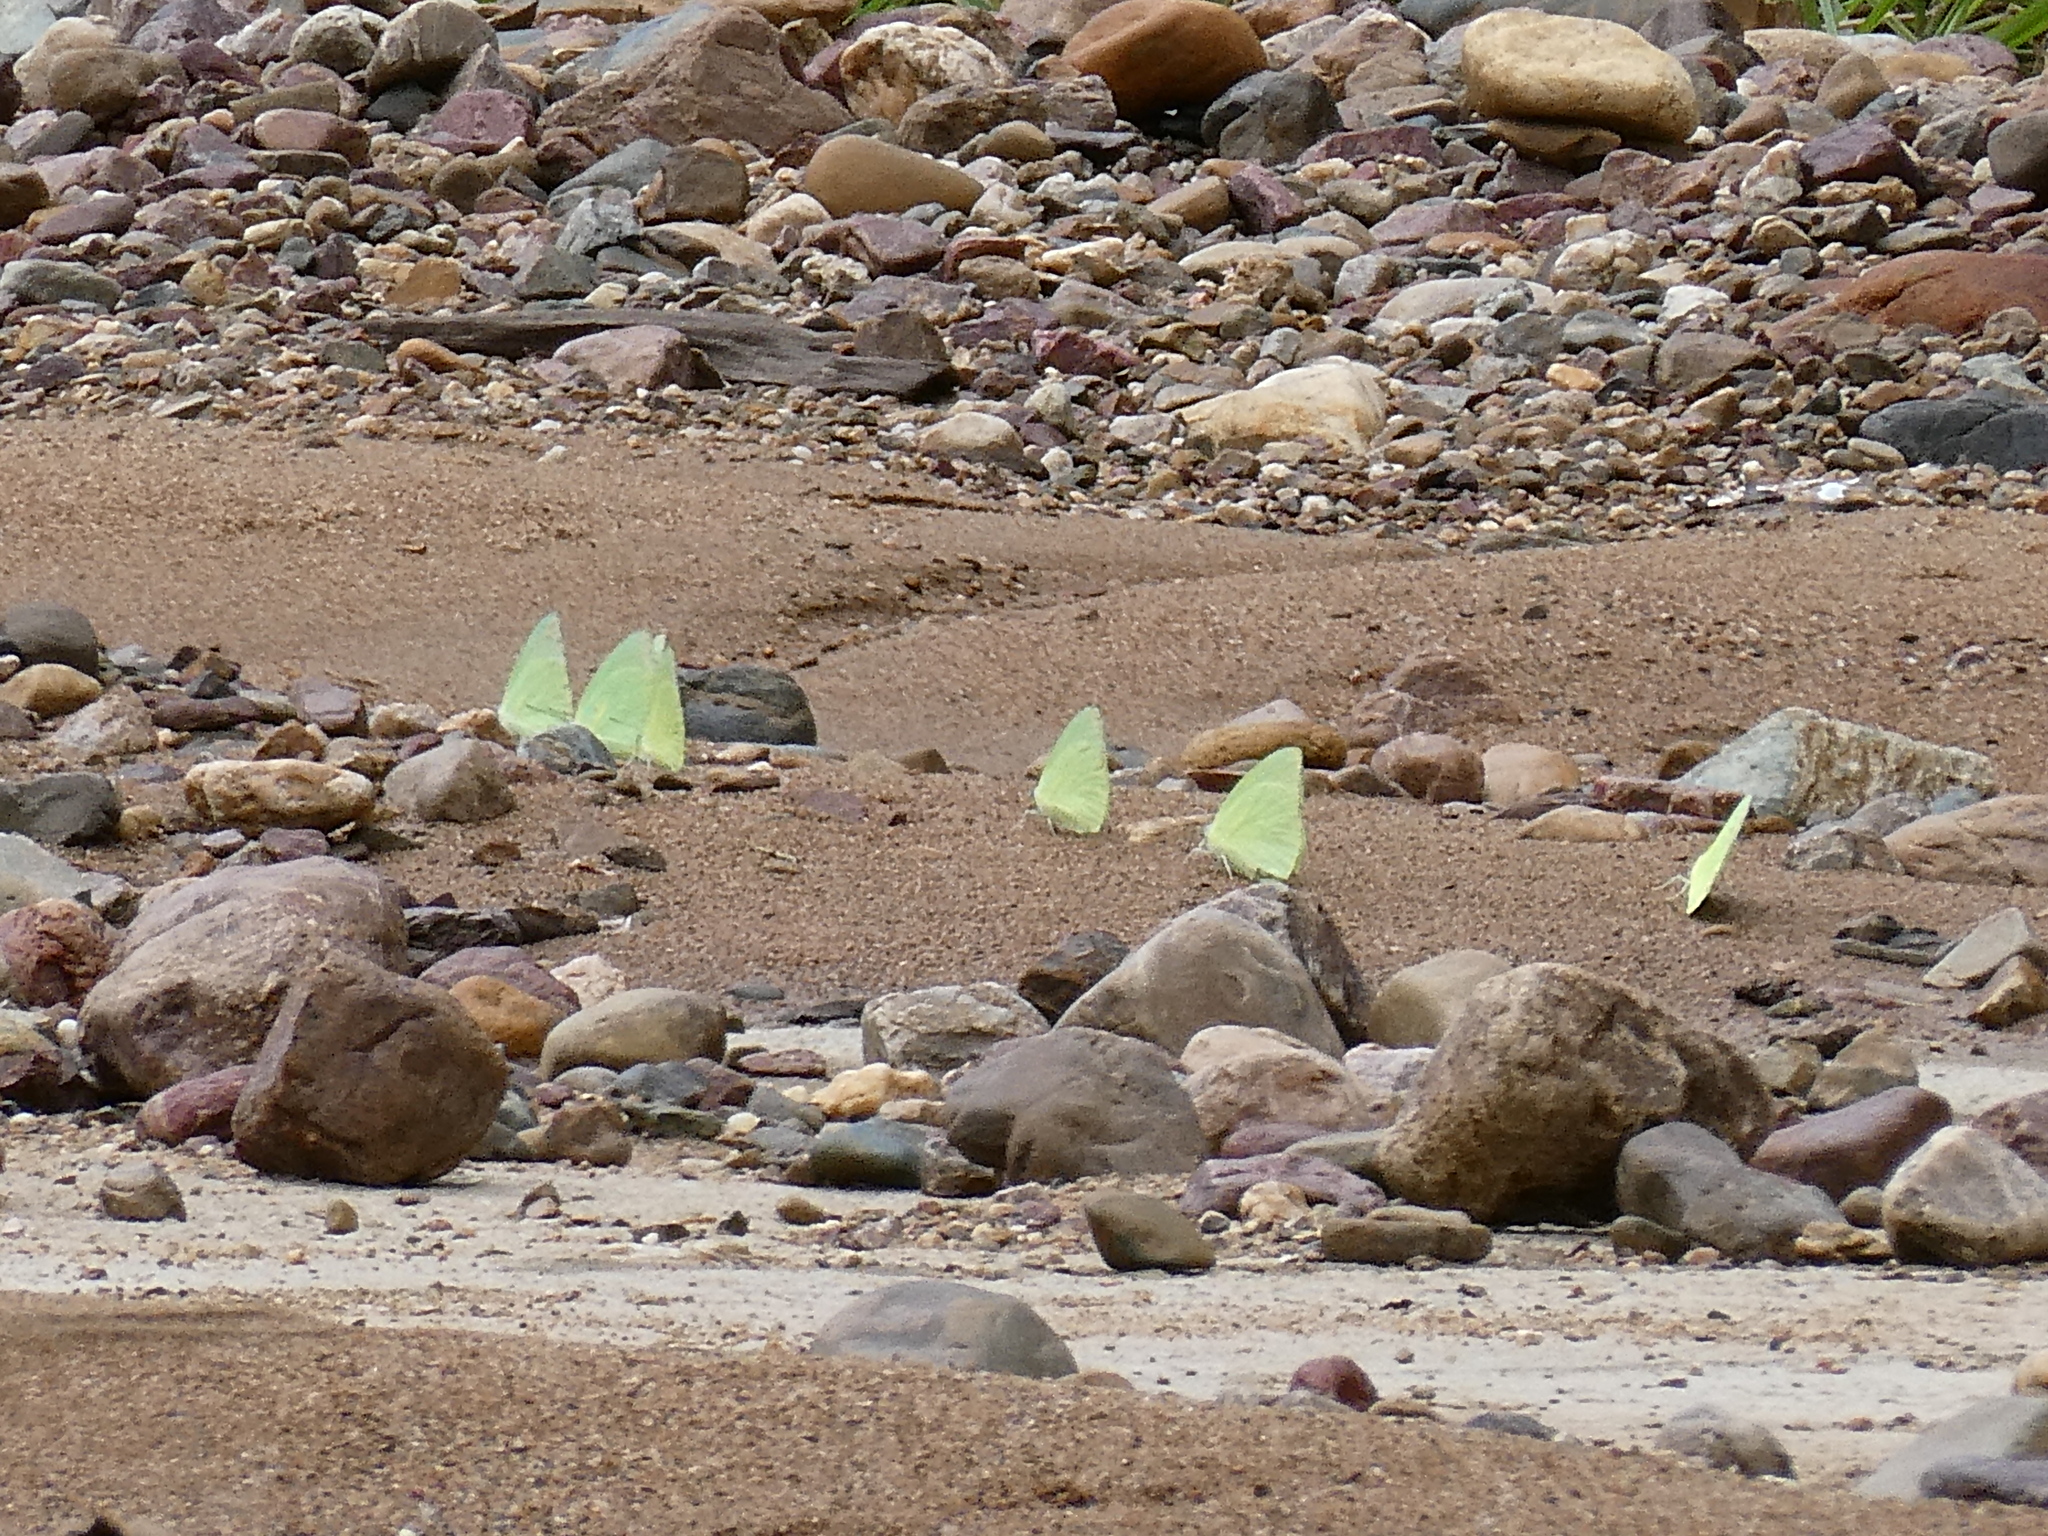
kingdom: Animalia
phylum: Arthropoda
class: Insecta
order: Lepidoptera
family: Pieridae
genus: Catopsilia
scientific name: Catopsilia pomona
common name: Common emigrant
